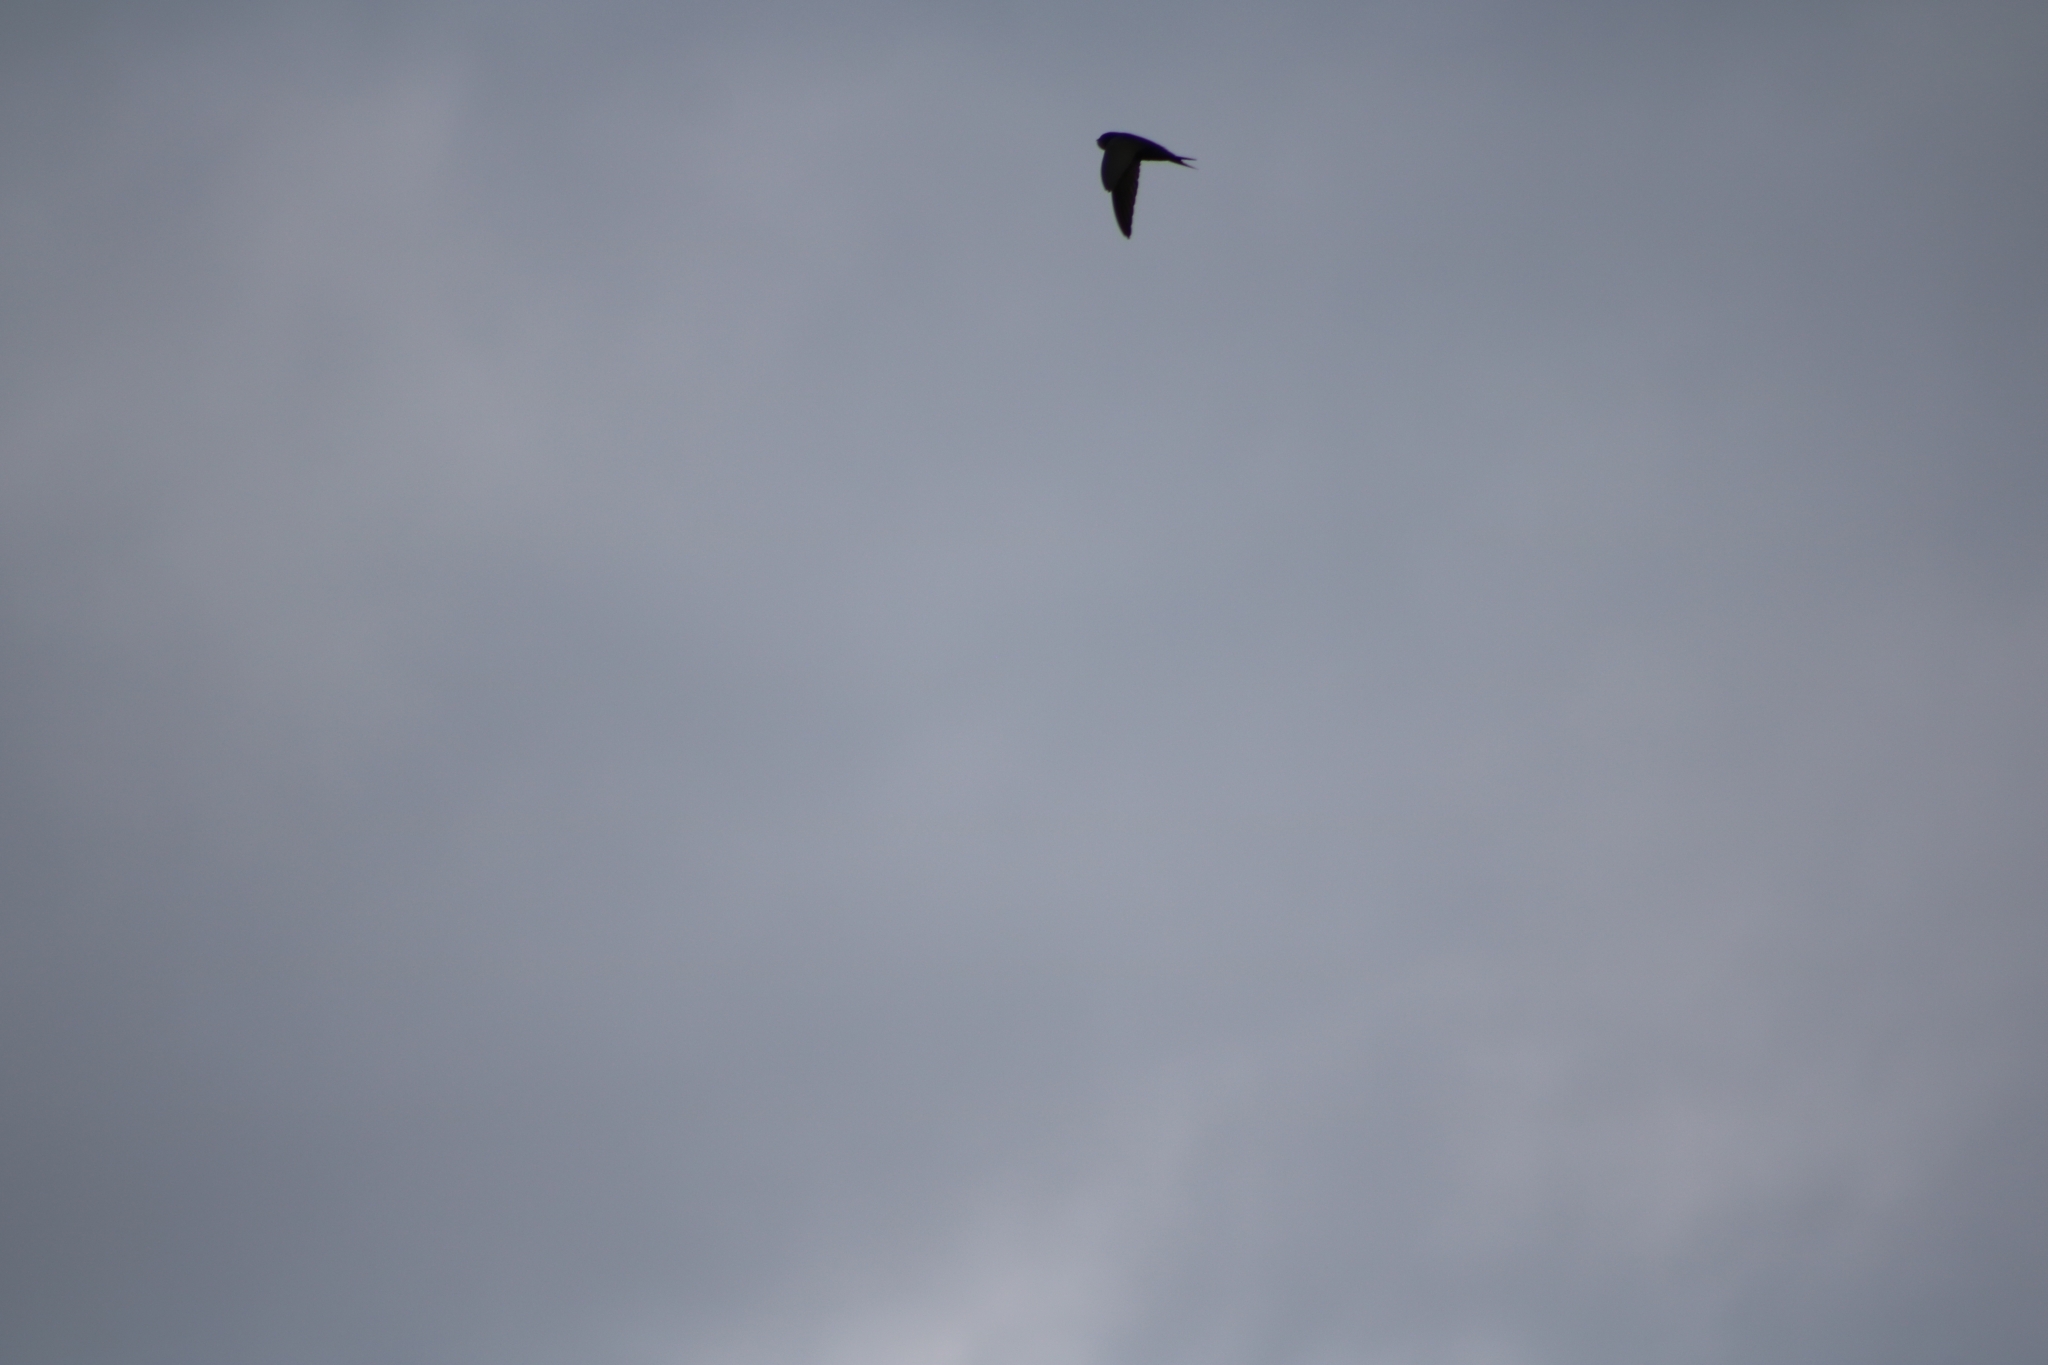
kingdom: Animalia
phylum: Chordata
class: Aves
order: Apodiformes
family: Apodidae
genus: Apus
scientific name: Apus apus
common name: Common swift
